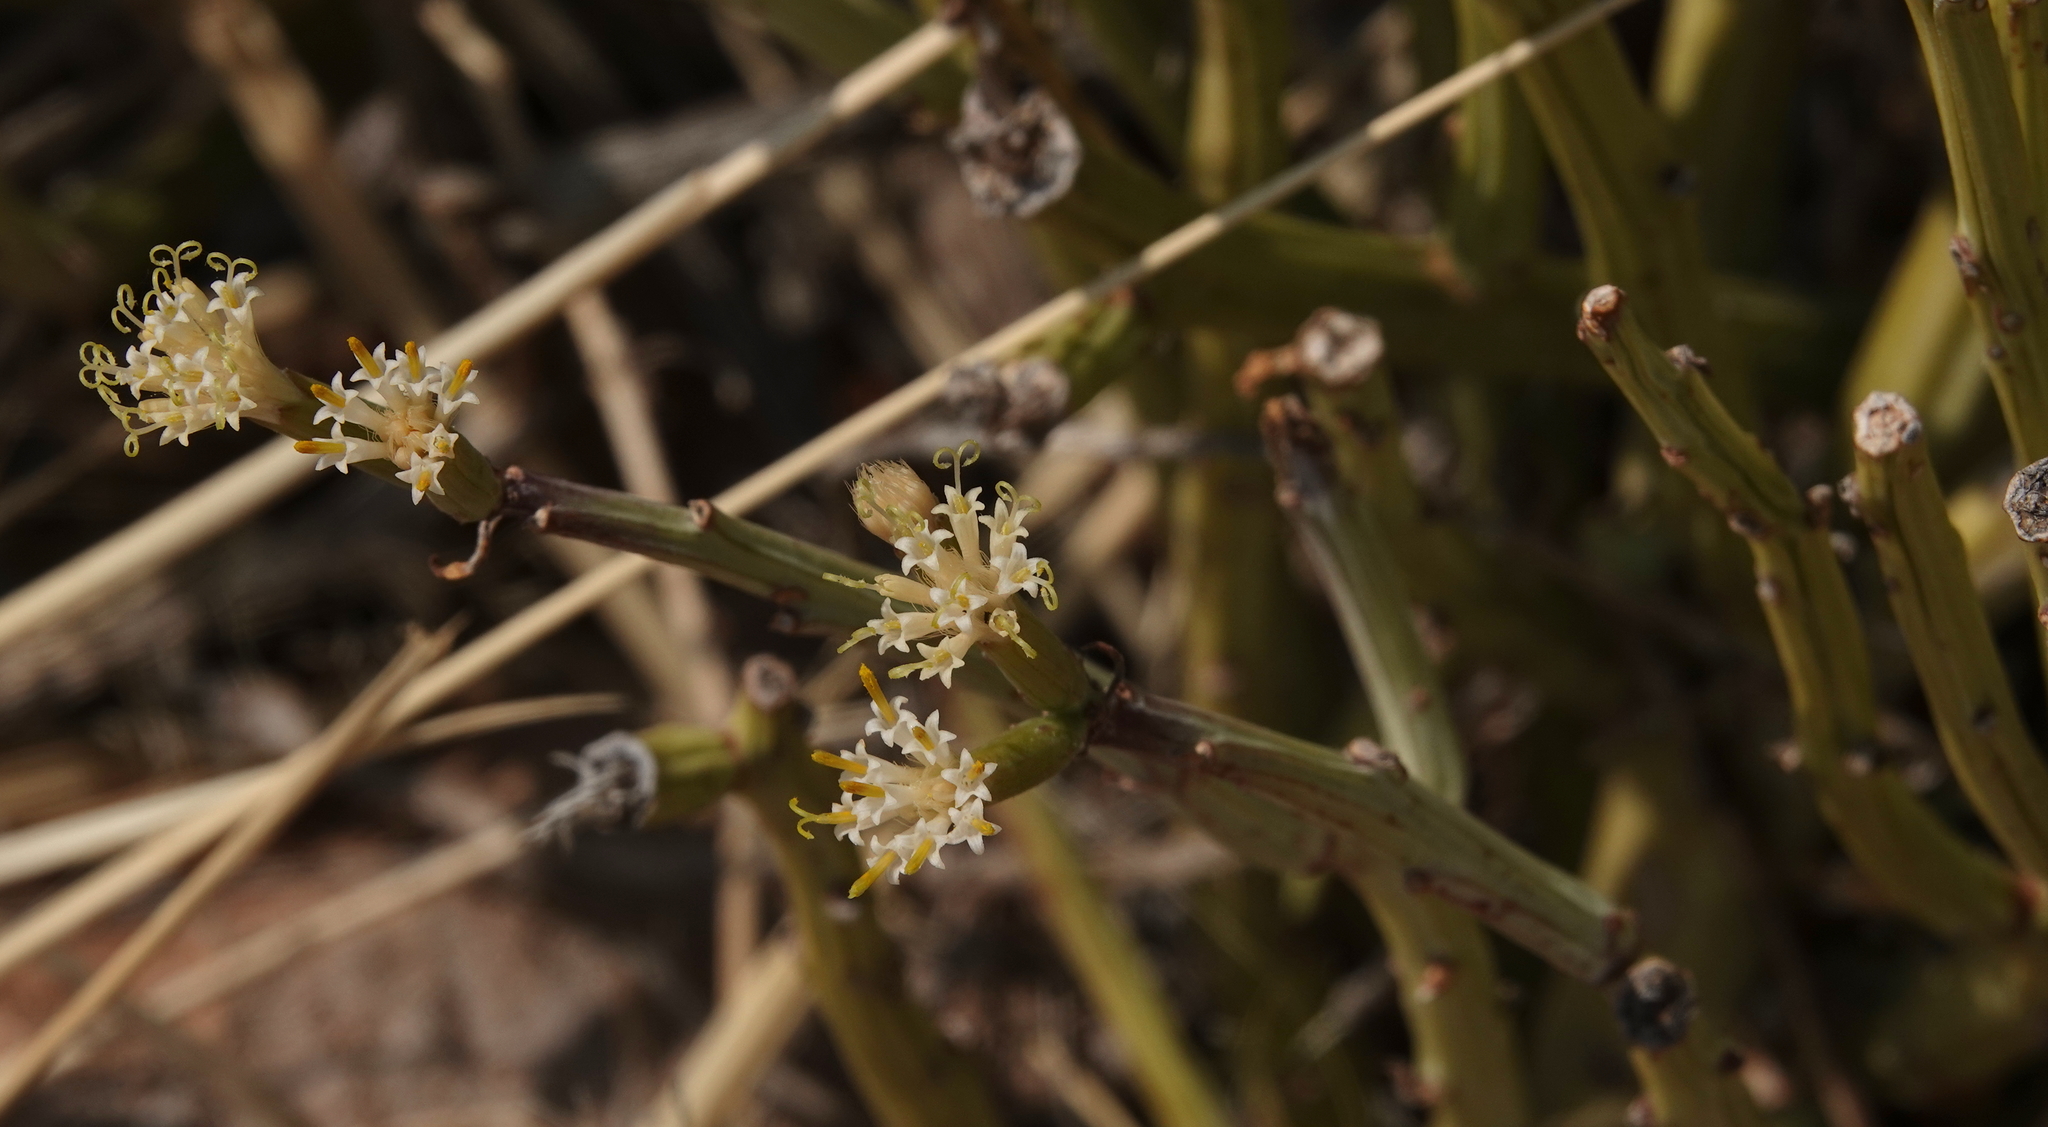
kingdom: Plantae
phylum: Tracheophyta
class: Magnoliopsida
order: Asterales
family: Asteraceae
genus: Curio
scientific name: Curio avasimontanus
